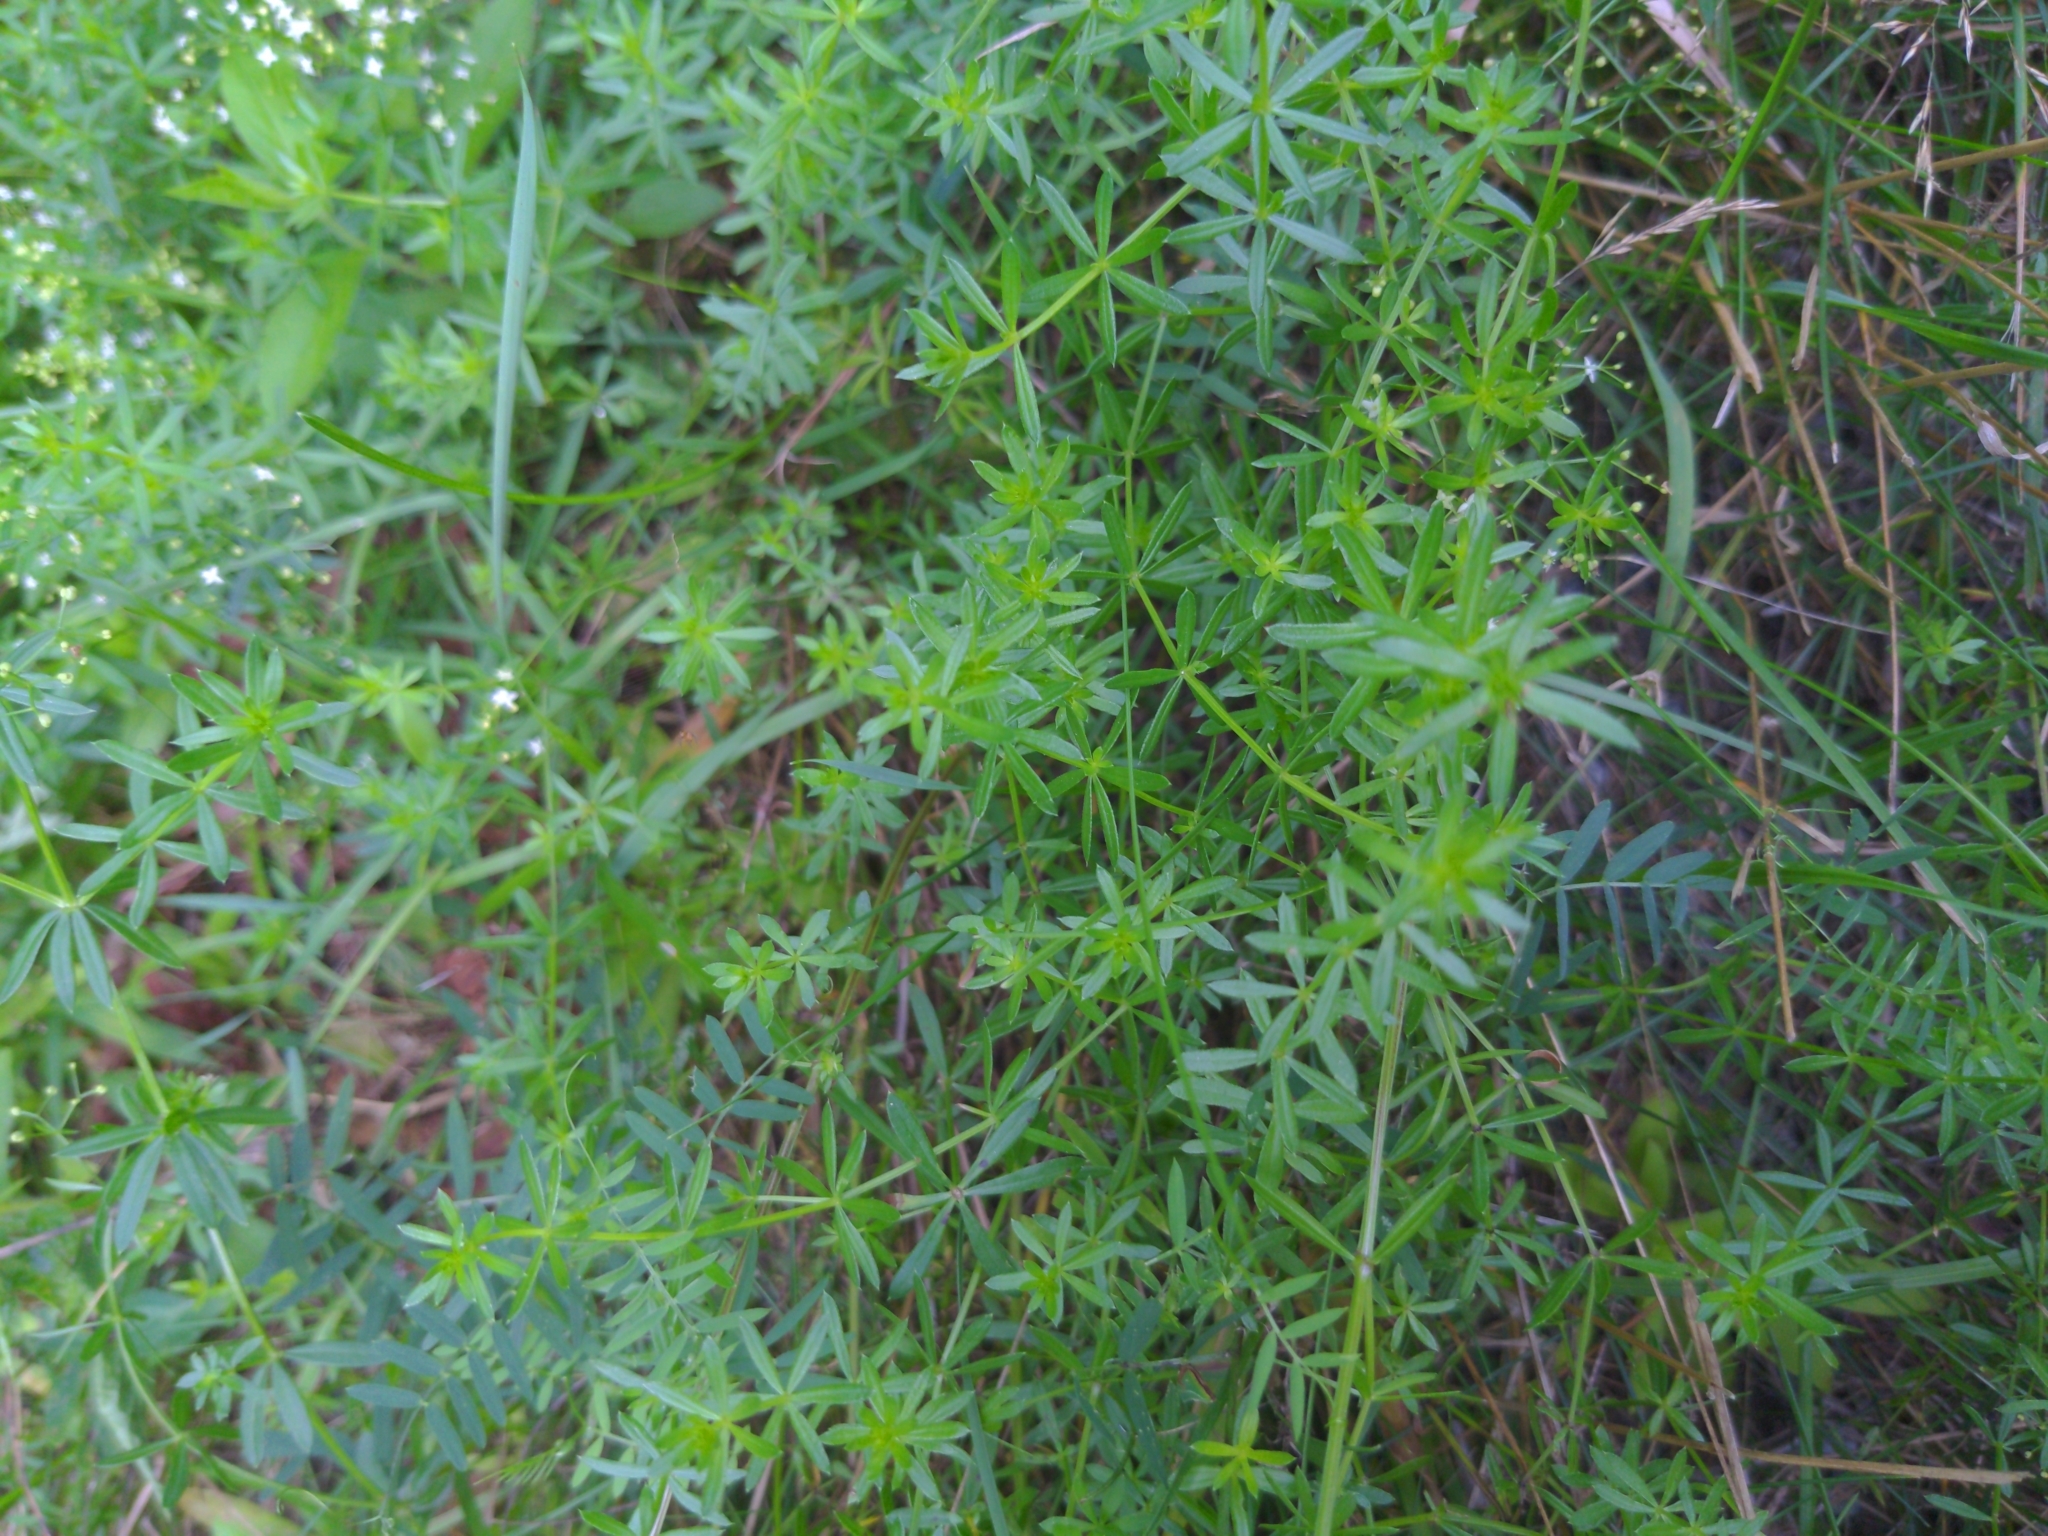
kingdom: Plantae
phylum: Tracheophyta
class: Magnoliopsida
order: Gentianales
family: Rubiaceae
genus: Galium
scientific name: Galium mollugo
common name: Hedge bedstraw
